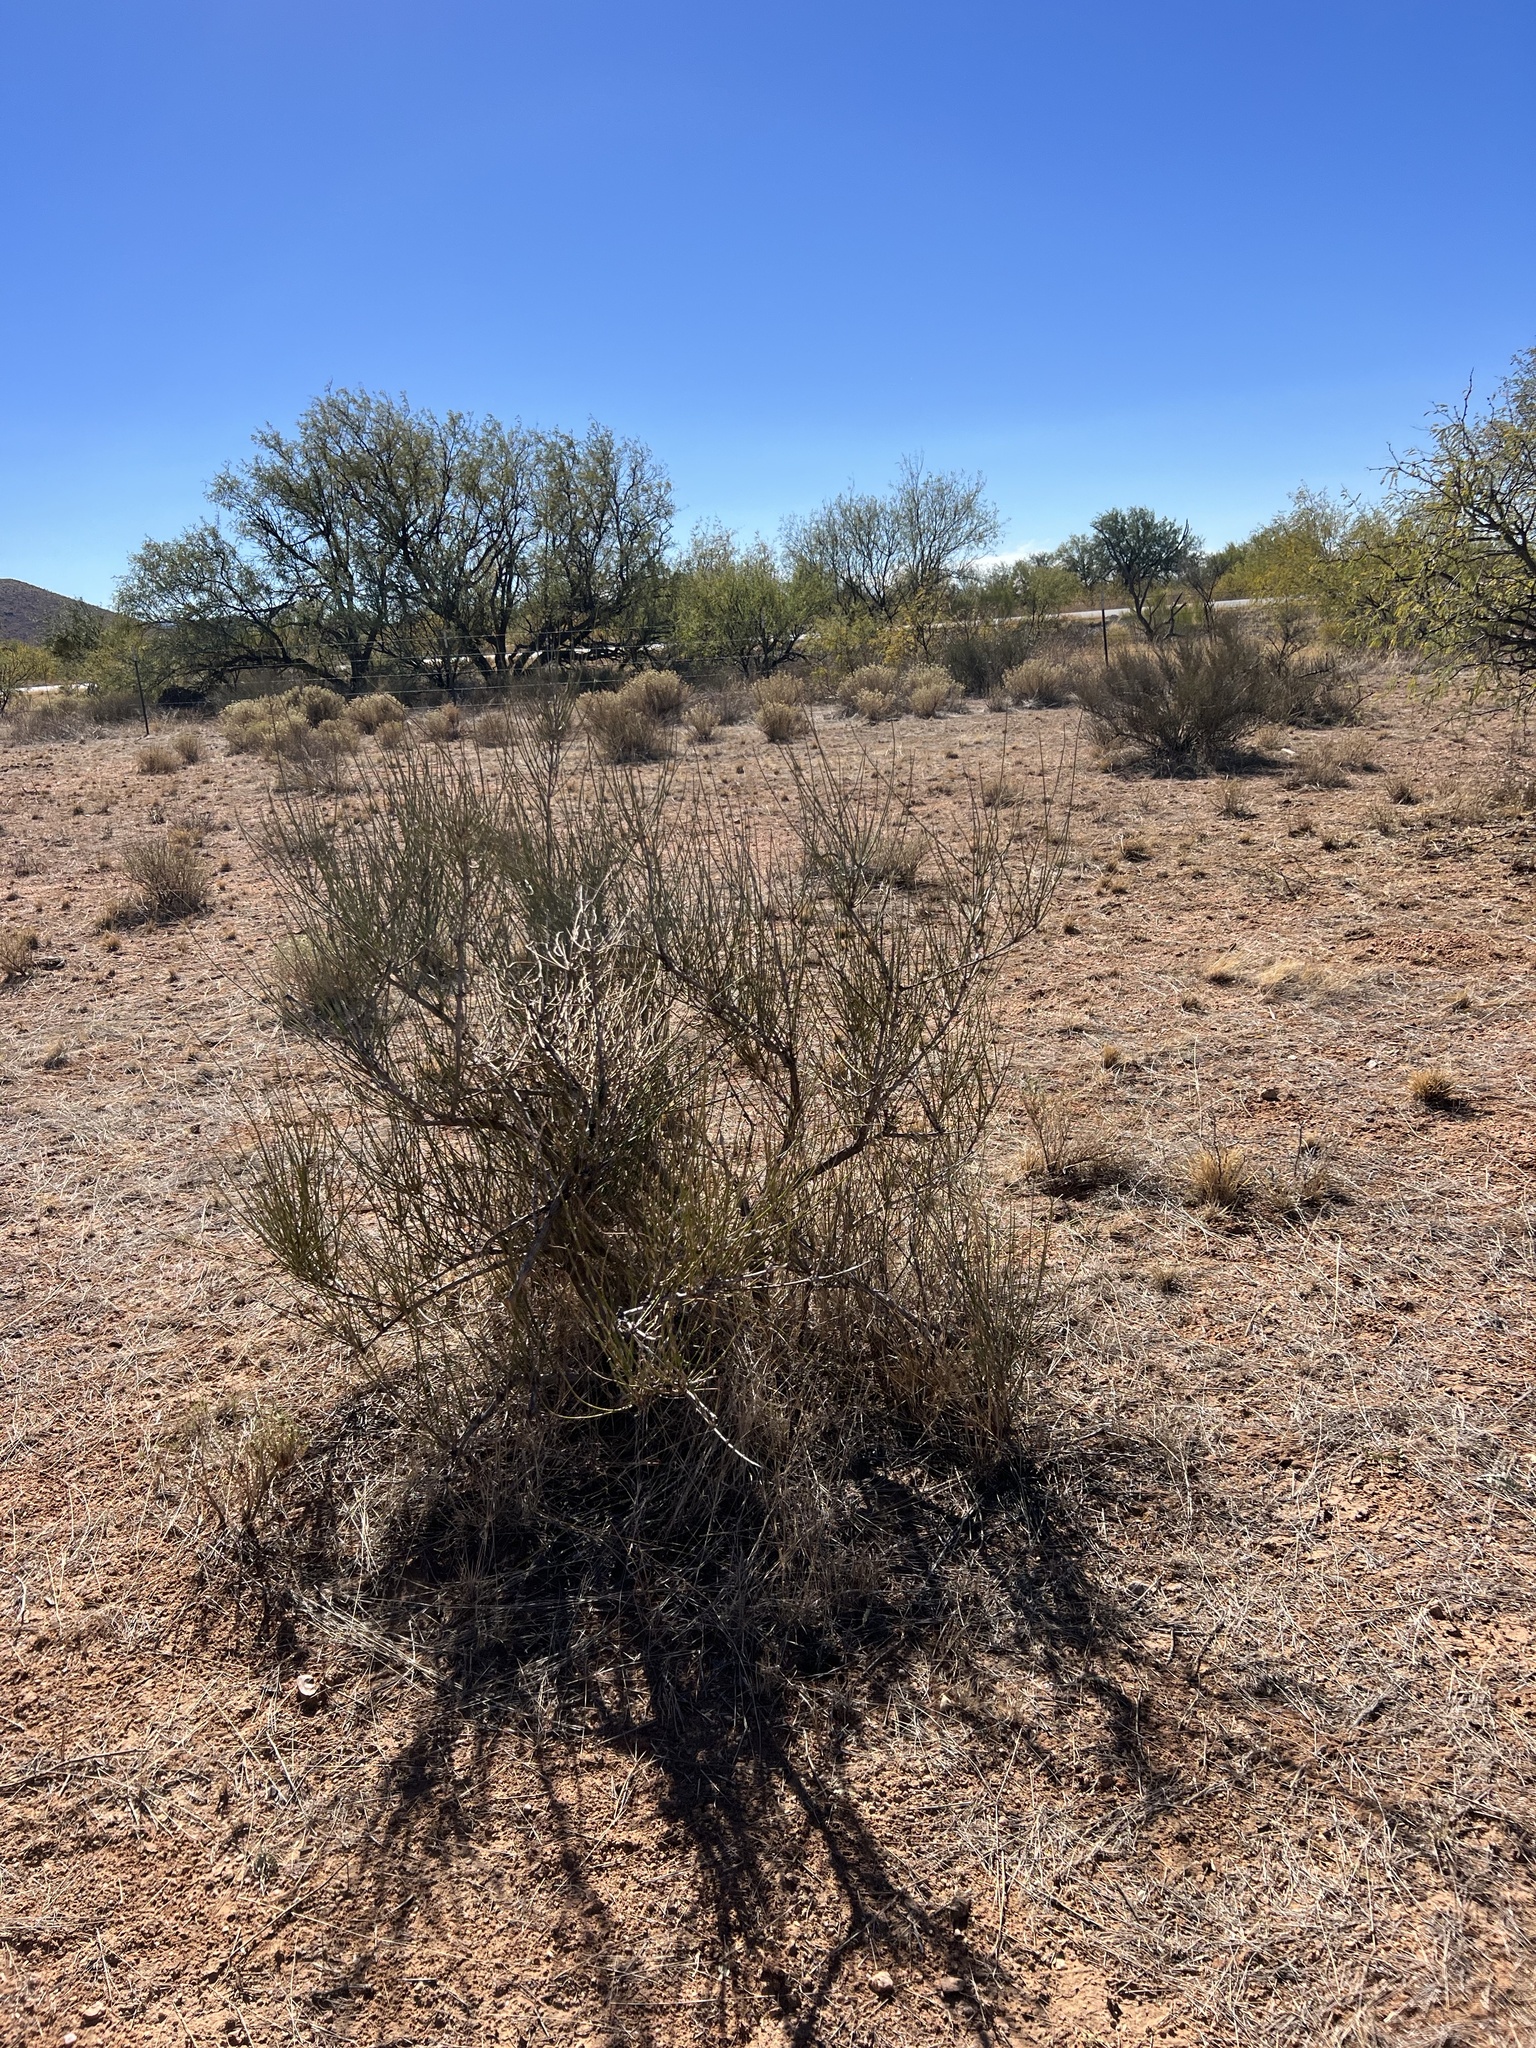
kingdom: Plantae
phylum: Tracheophyta
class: Gnetopsida
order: Ephedrales
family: Ephedraceae
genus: Ephedra
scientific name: Ephedra trifurca
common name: Mexican-tea
